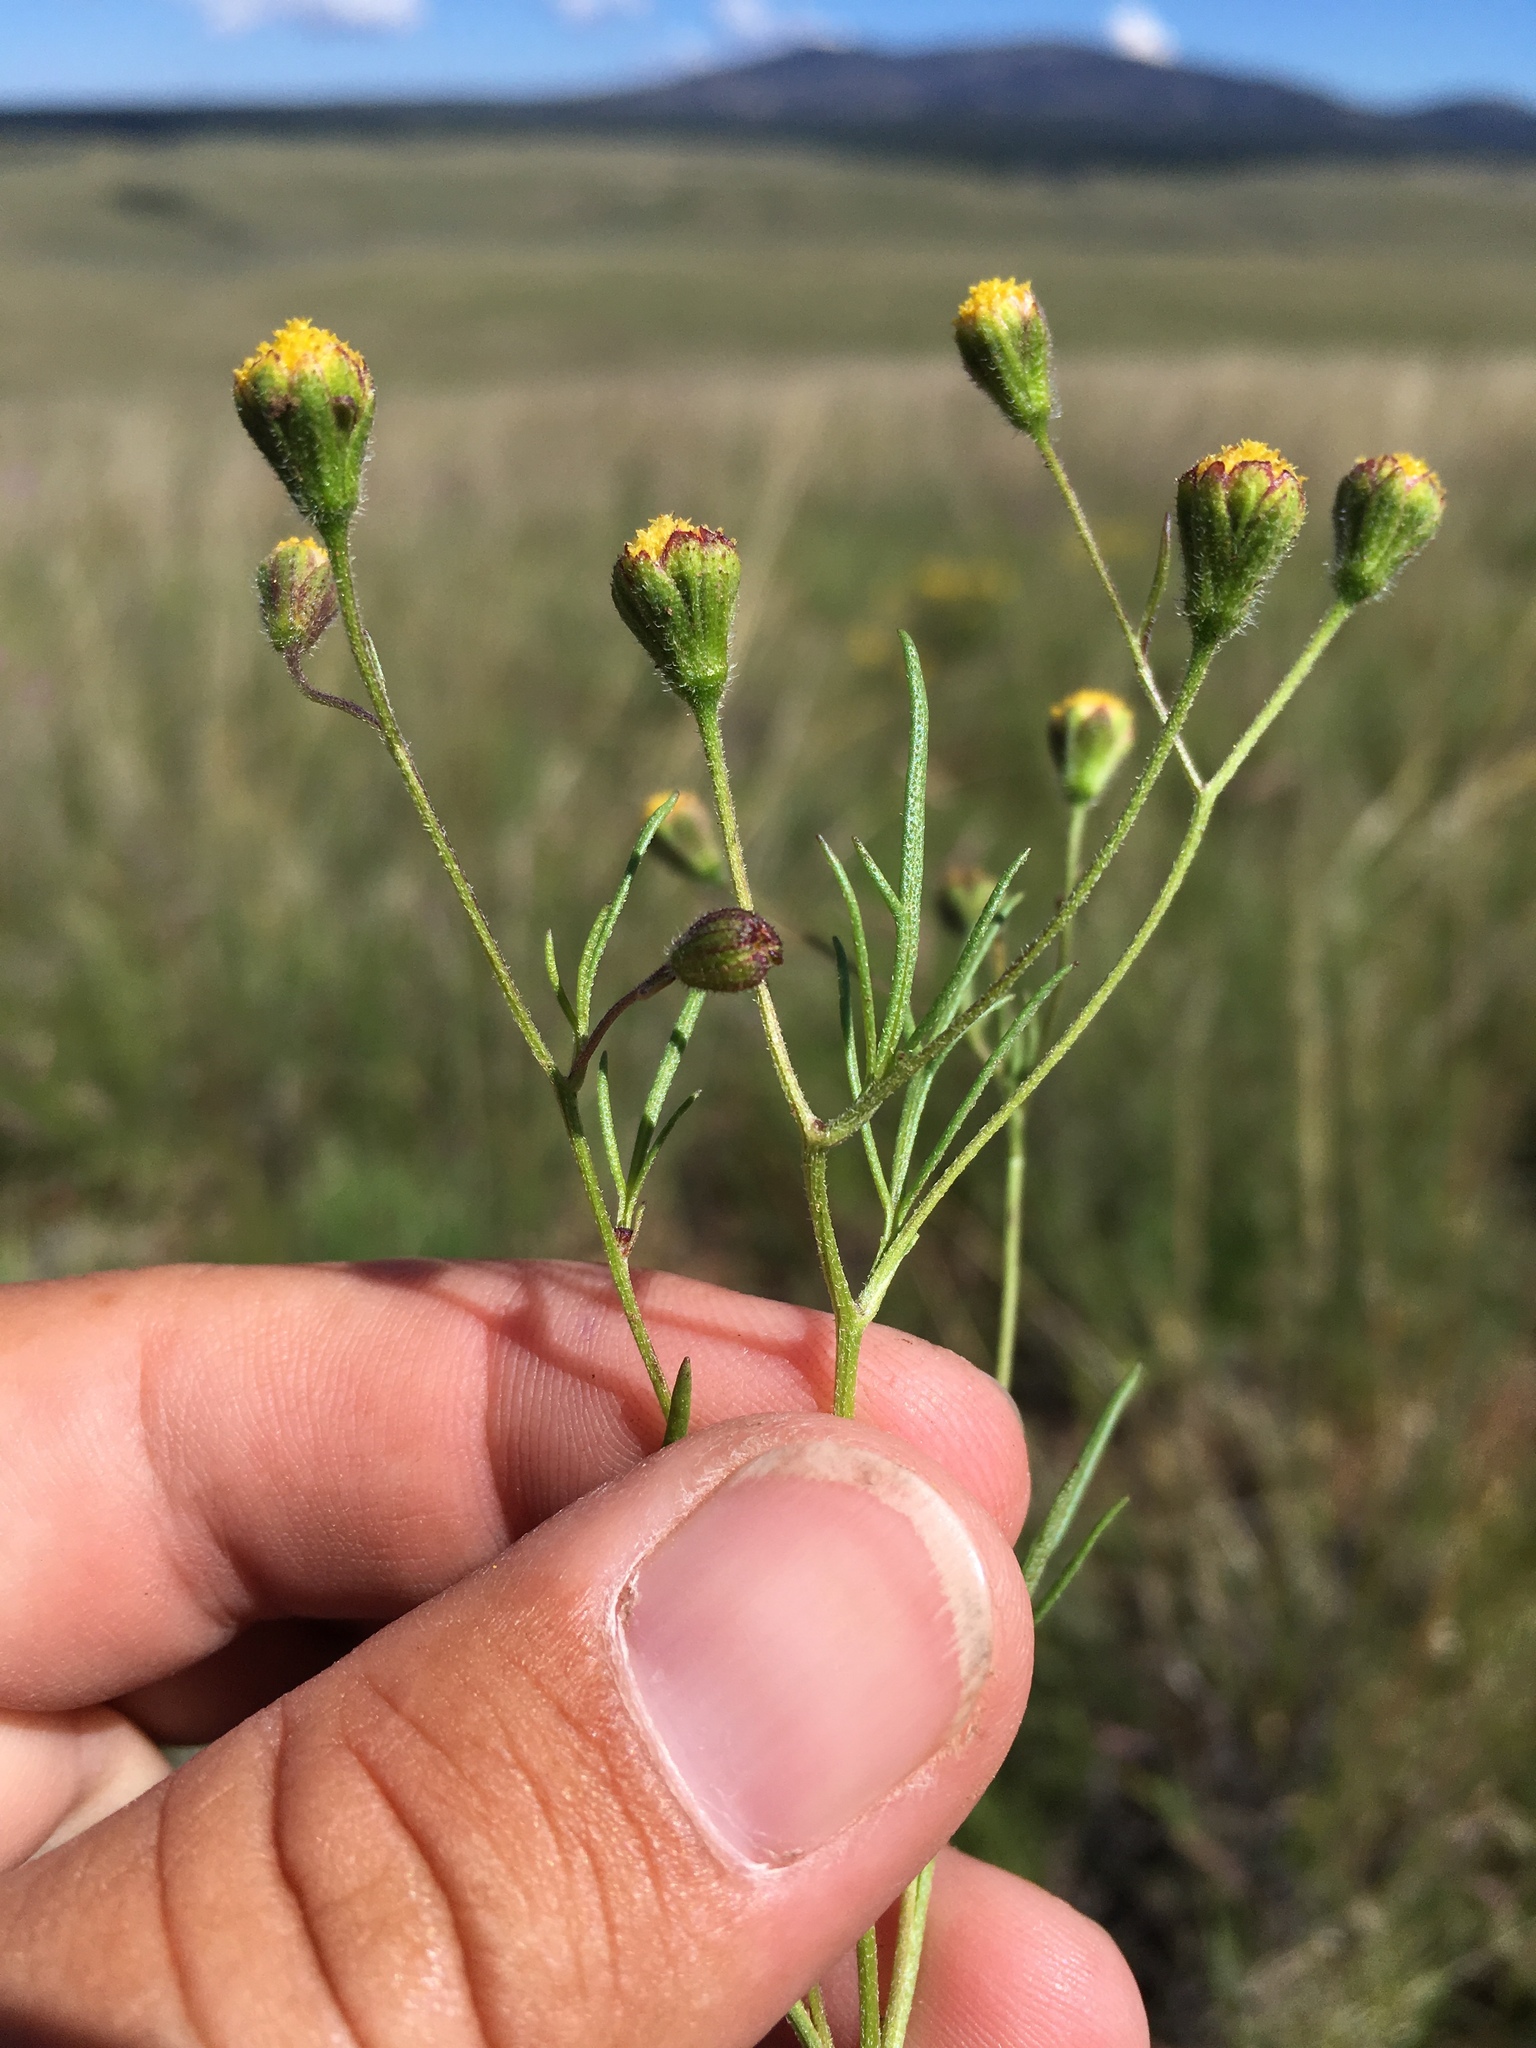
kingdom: Plantae
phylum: Tracheophyta
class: Magnoliopsida
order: Asterales
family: Asteraceae
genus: Picradeniopsis
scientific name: Picradeniopsis multiflora
